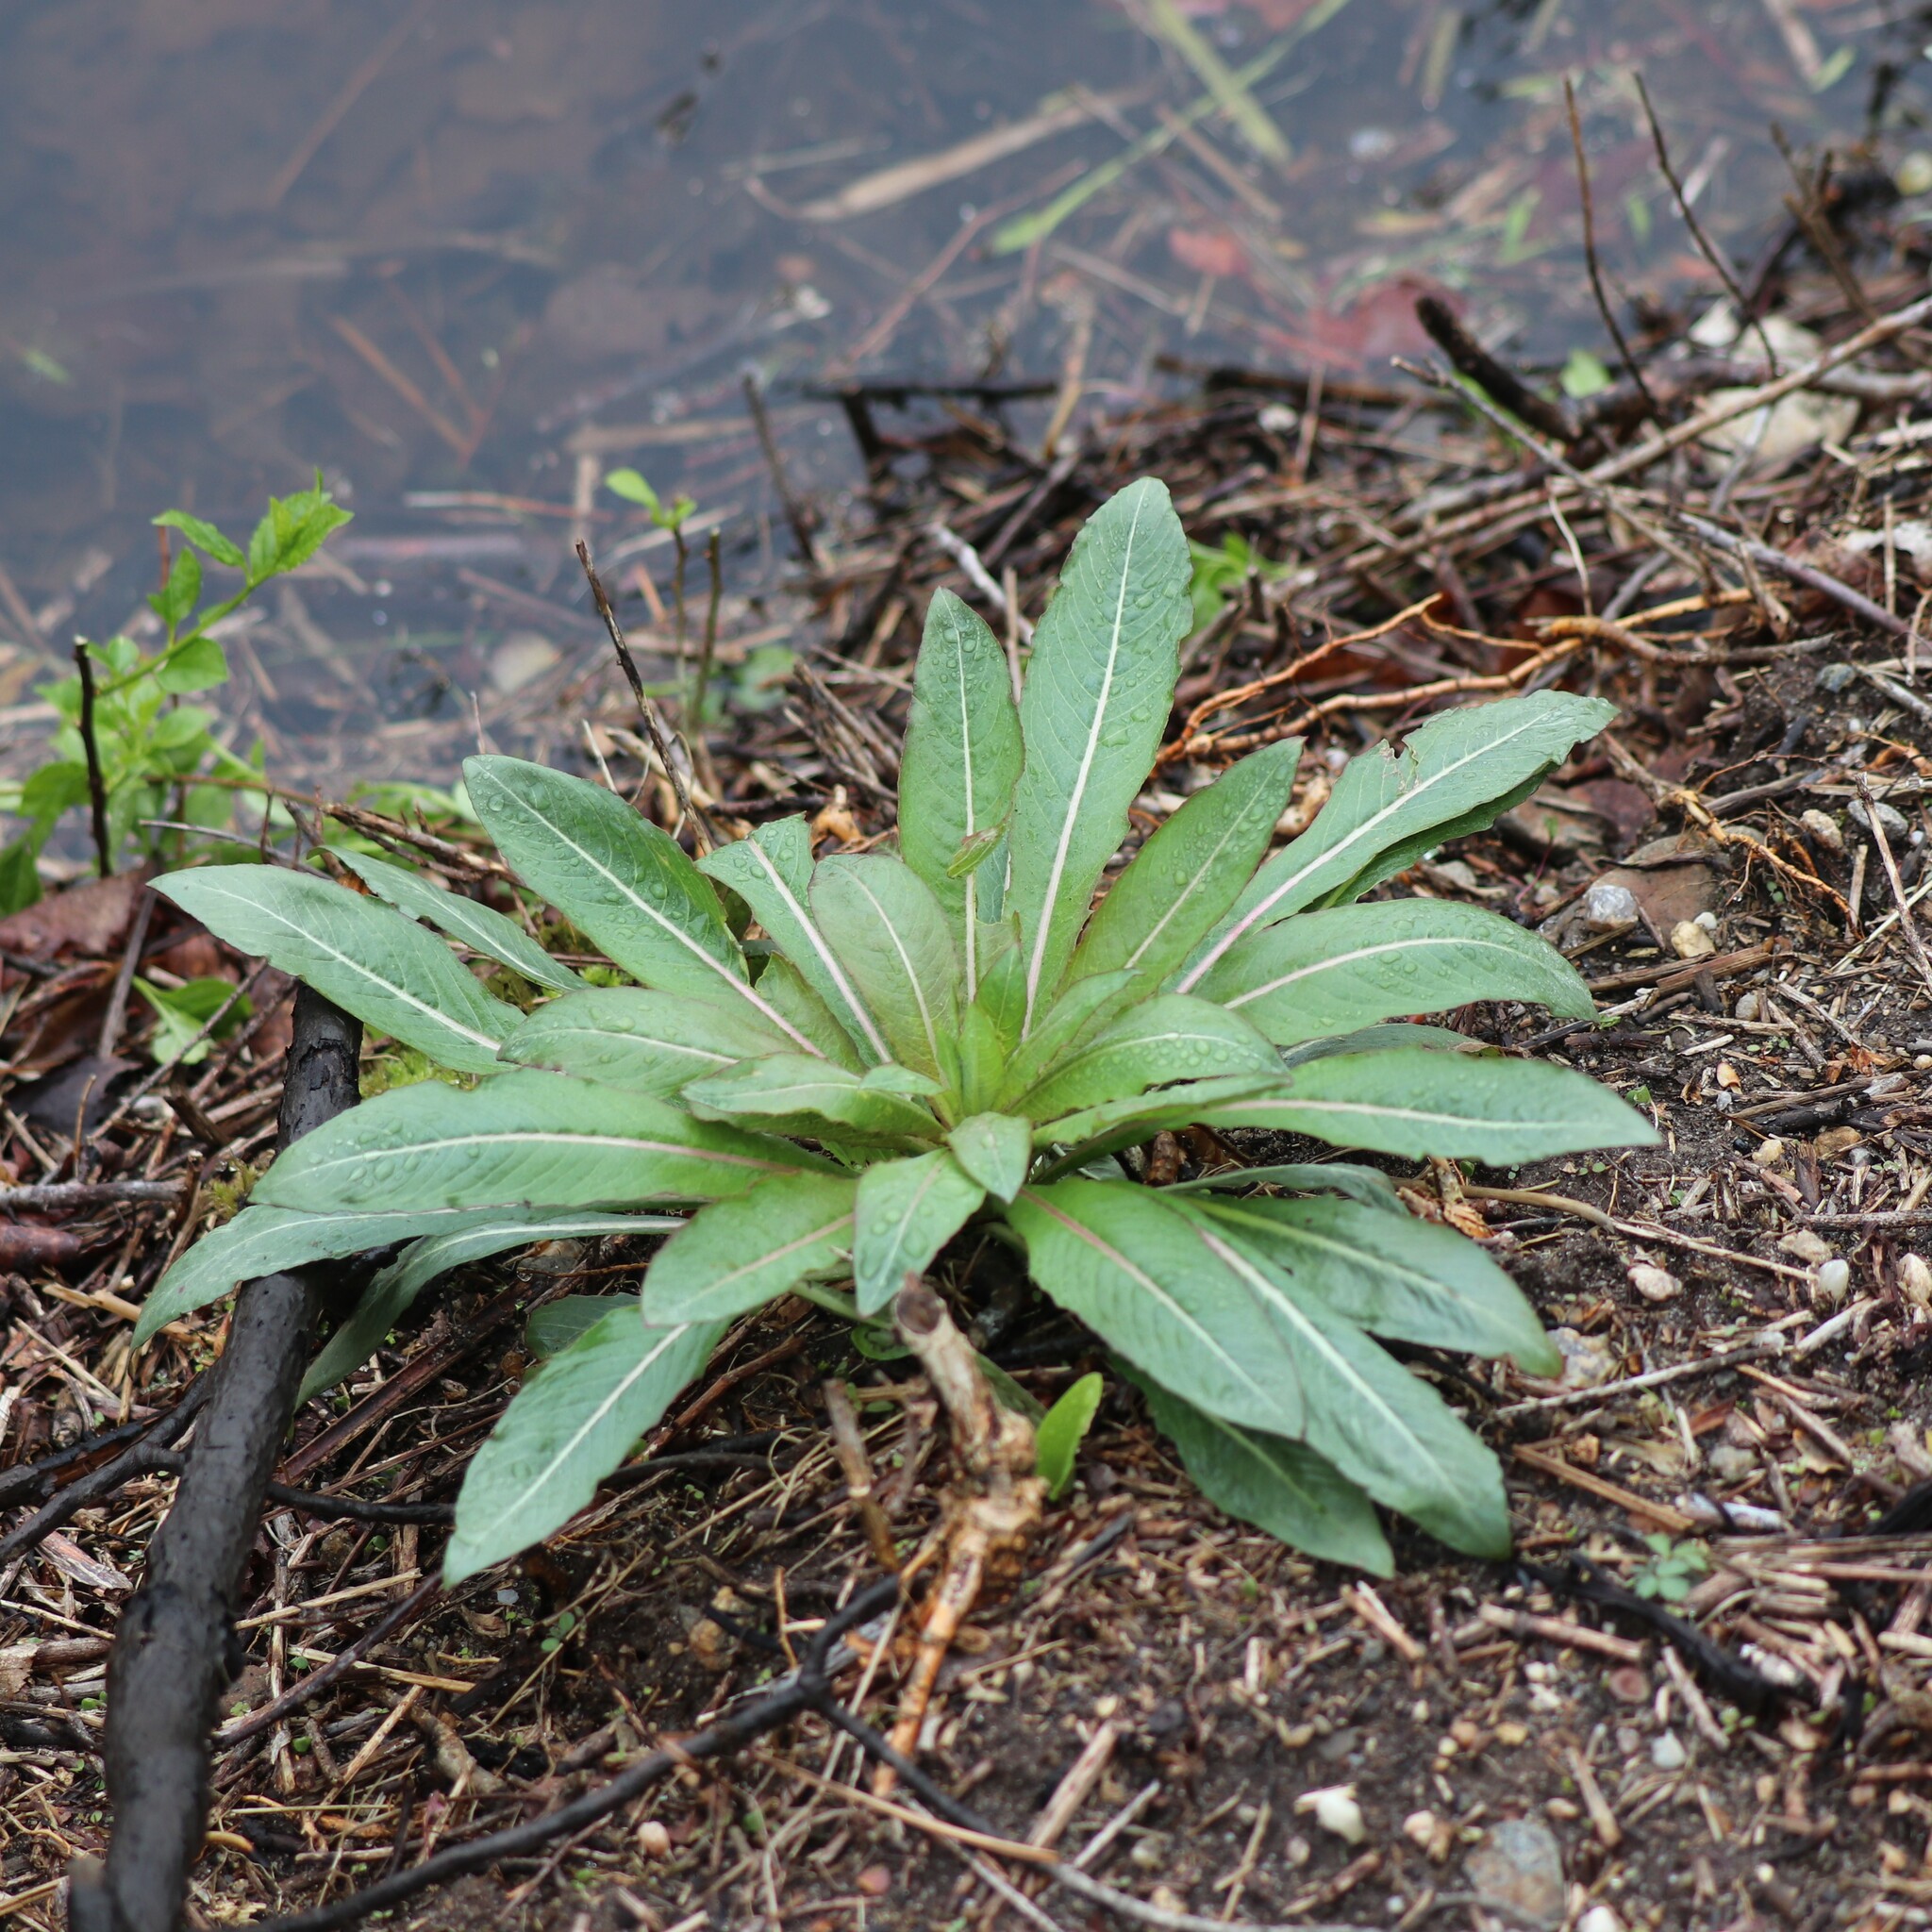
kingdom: Plantae
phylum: Tracheophyta
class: Magnoliopsida
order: Myrtales
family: Onagraceae
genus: Oenothera
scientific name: Oenothera
